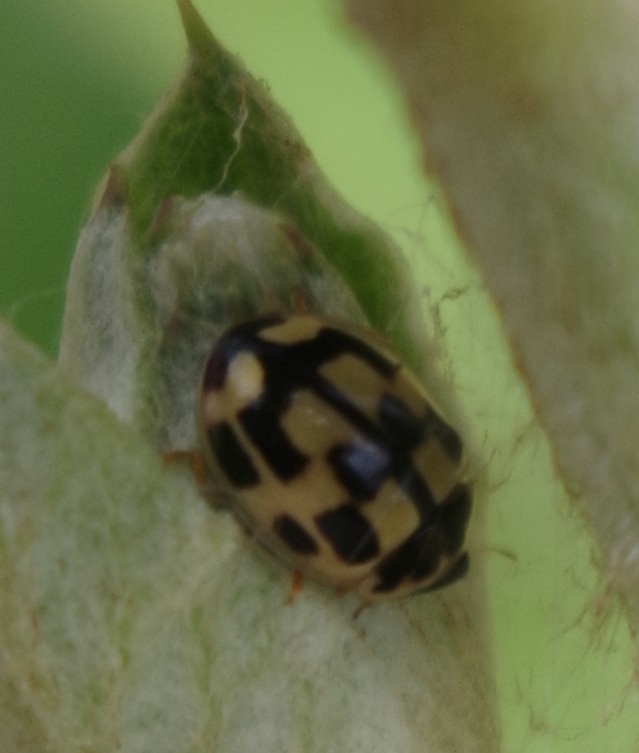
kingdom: Animalia
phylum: Arthropoda
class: Insecta
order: Coleoptera
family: Coccinellidae
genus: Propylaea
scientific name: Propylaea quatuordecimpunctata
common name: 14-spotted ladybird beetle
